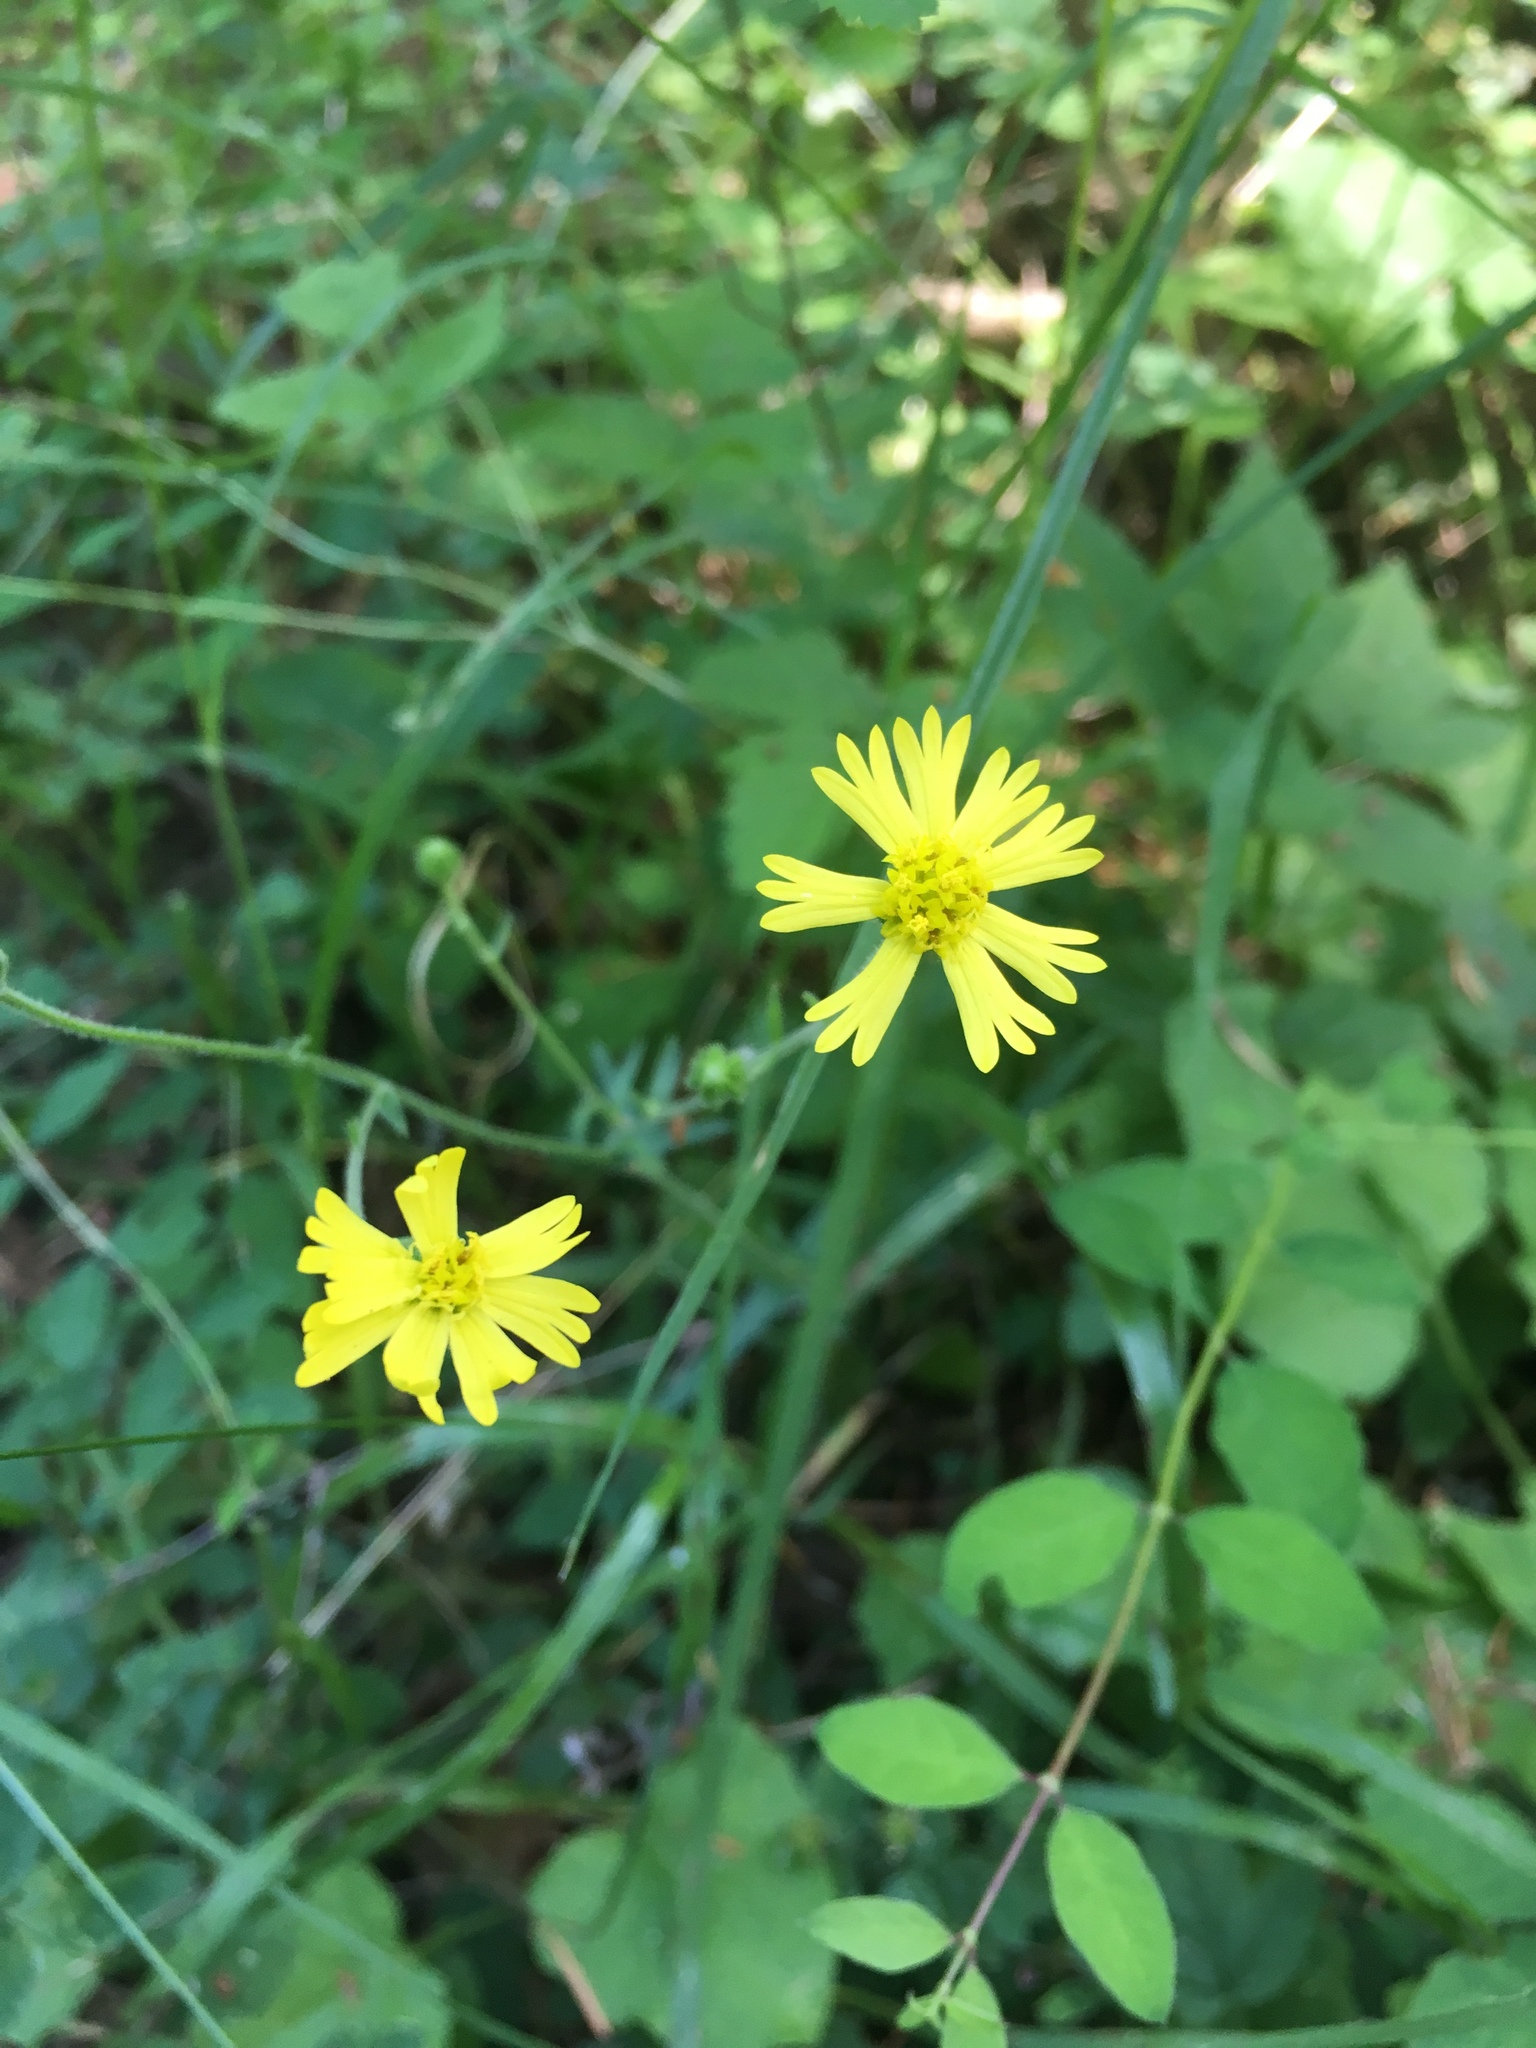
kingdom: Plantae
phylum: Tracheophyta
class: Magnoliopsida
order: Asterales
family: Asteraceae
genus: Anisocarpus
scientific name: Anisocarpus madioides
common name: Woodland madia
